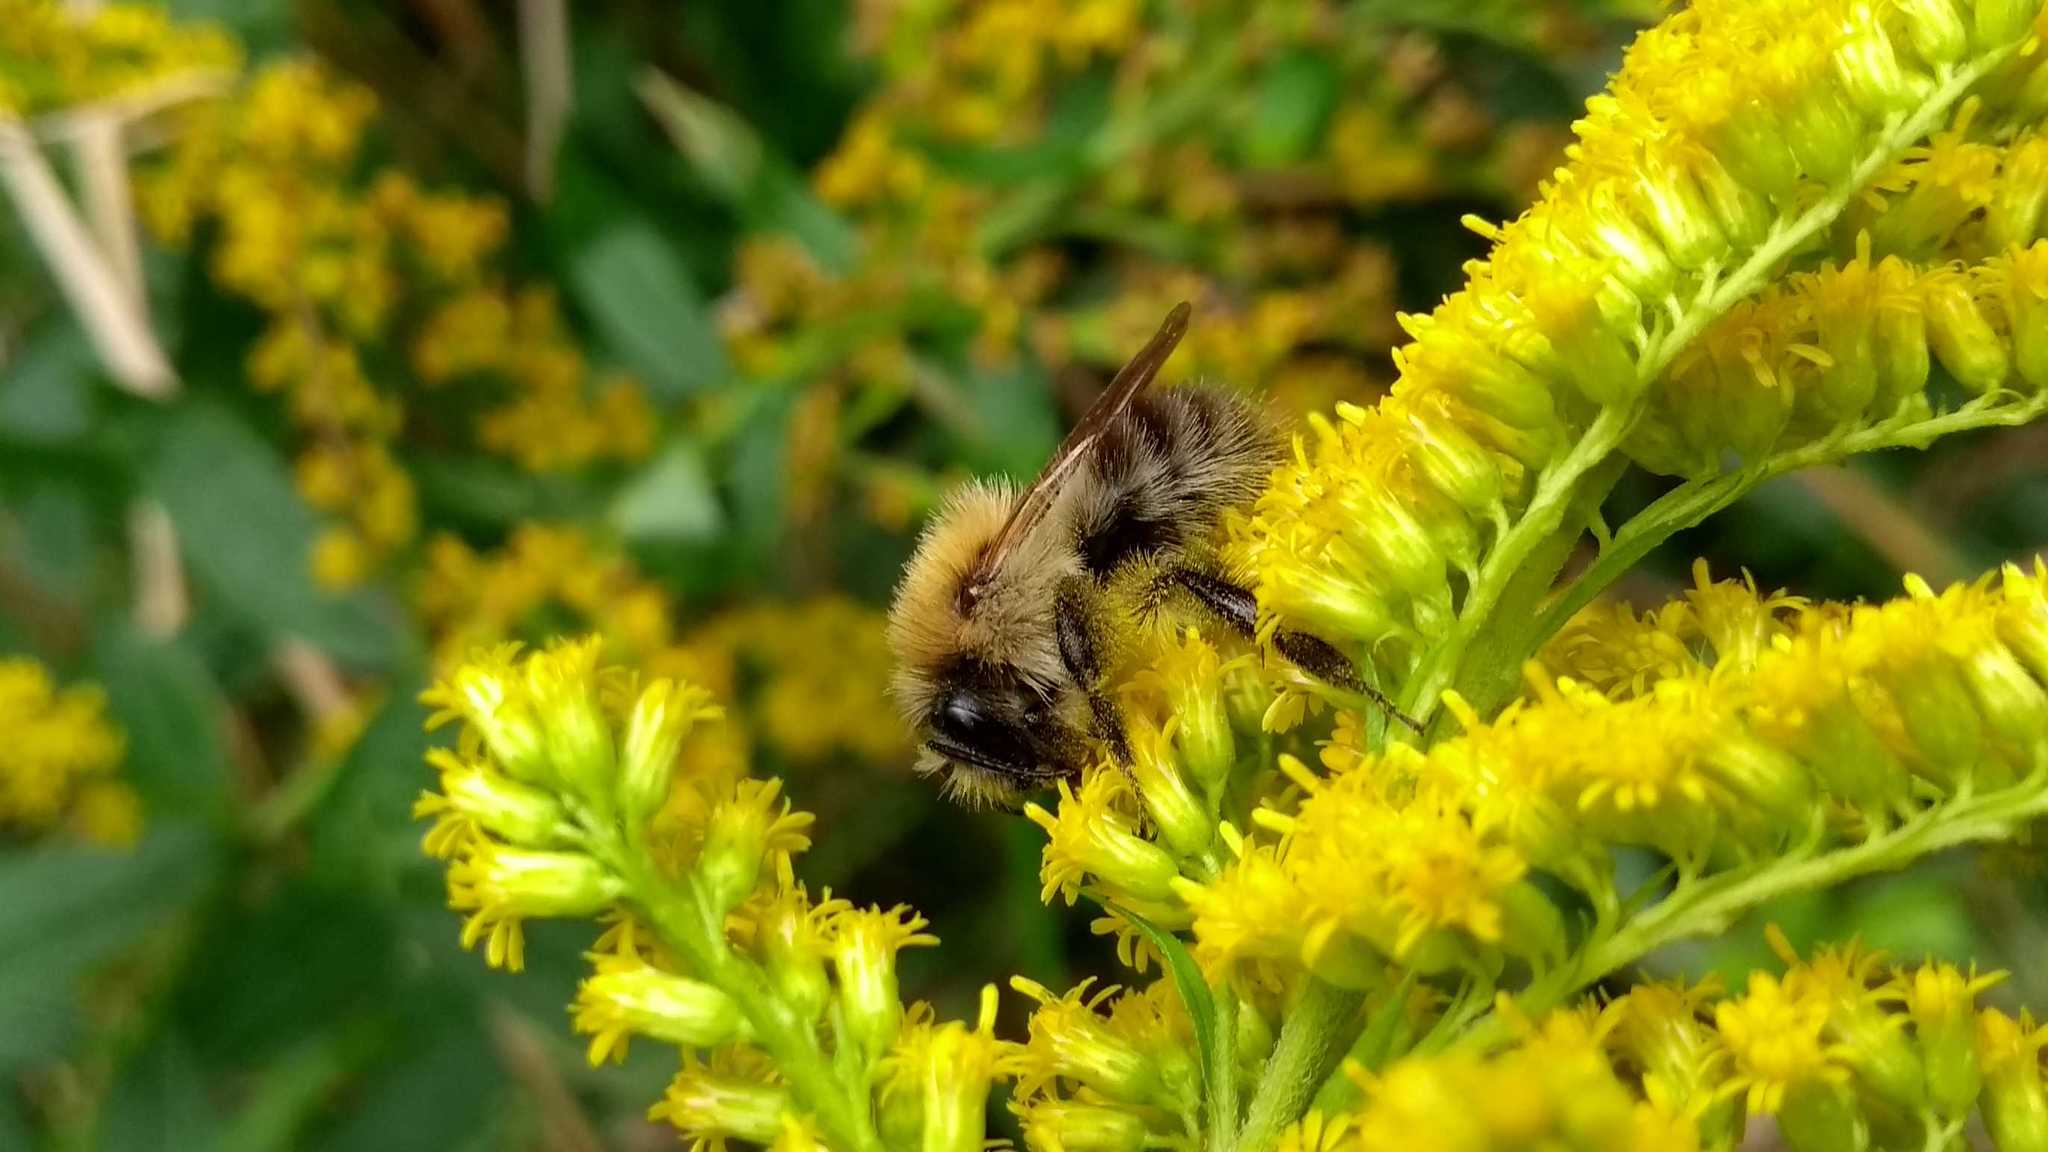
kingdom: Animalia
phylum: Arthropoda
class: Insecta
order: Hymenoptera
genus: Thoracobombus
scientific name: Thoracobombus
